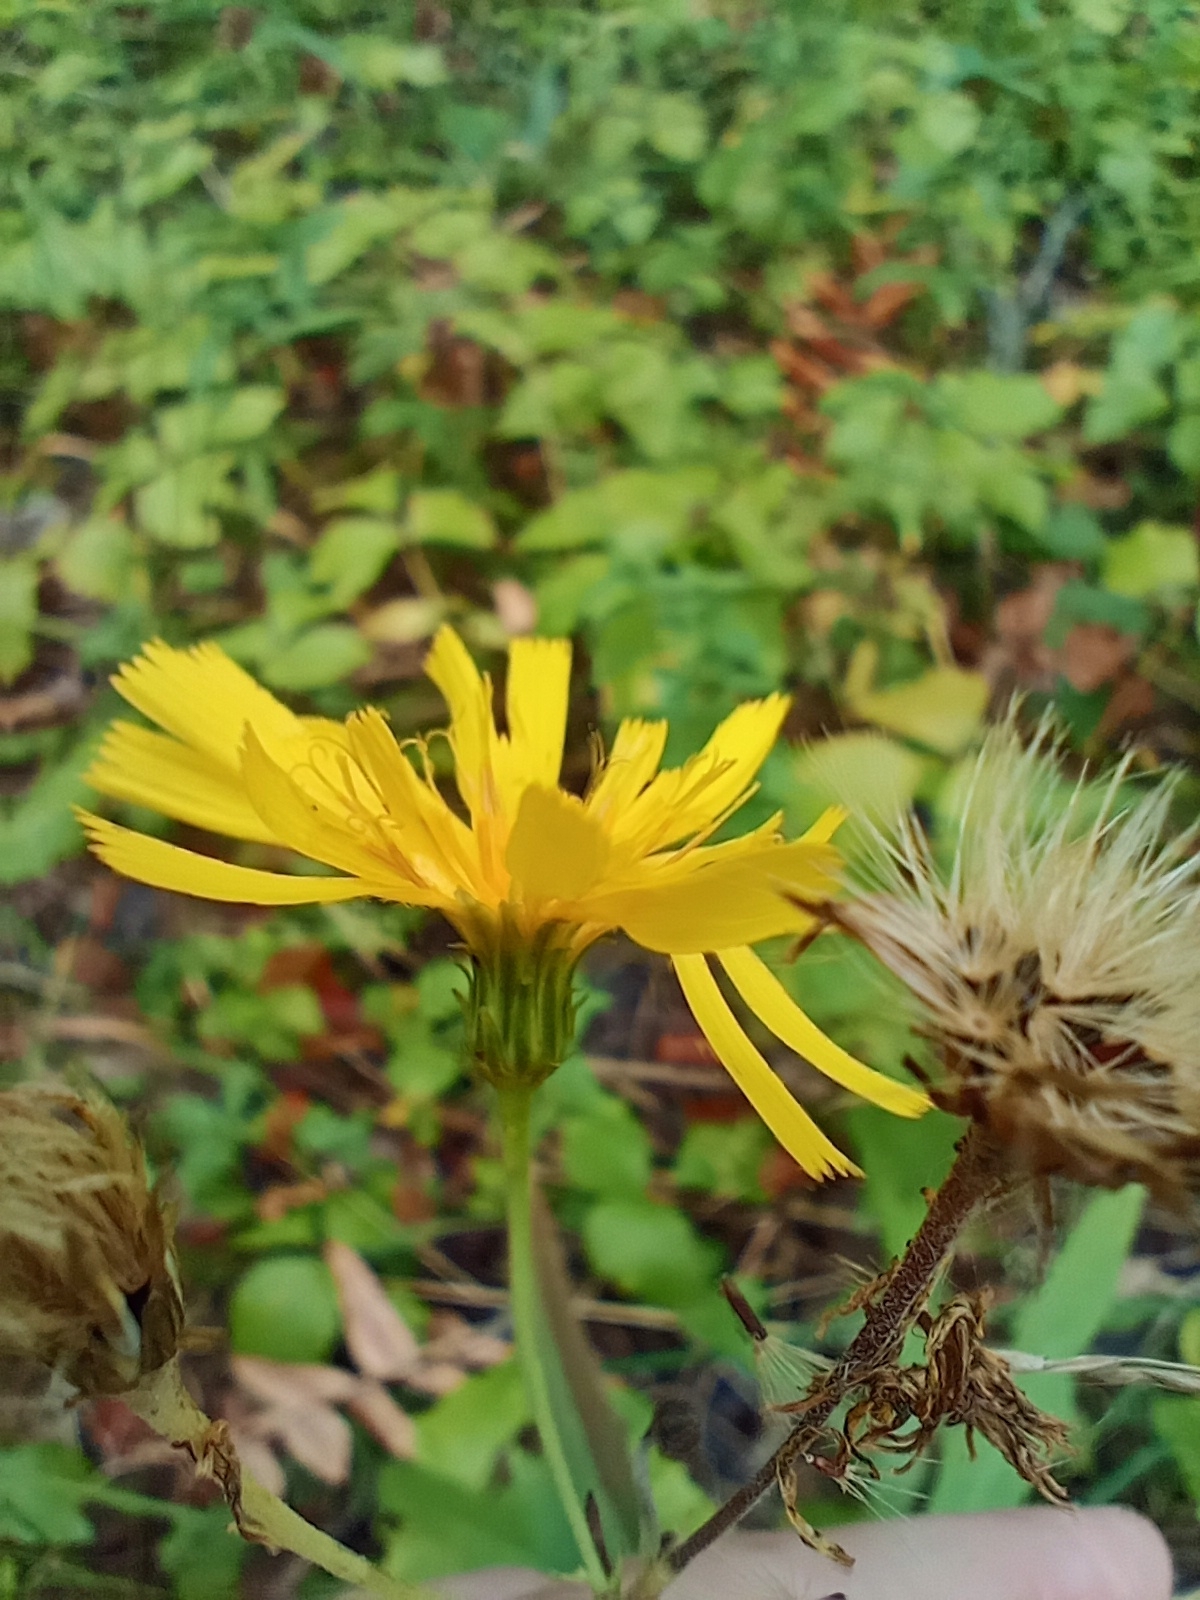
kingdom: Plantae
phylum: Tracheophyta
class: Magnoliopsida
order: Asterales
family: Asteraceae
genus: Hieracium
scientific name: Hieracium umbellatum
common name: Northern hawkweed
